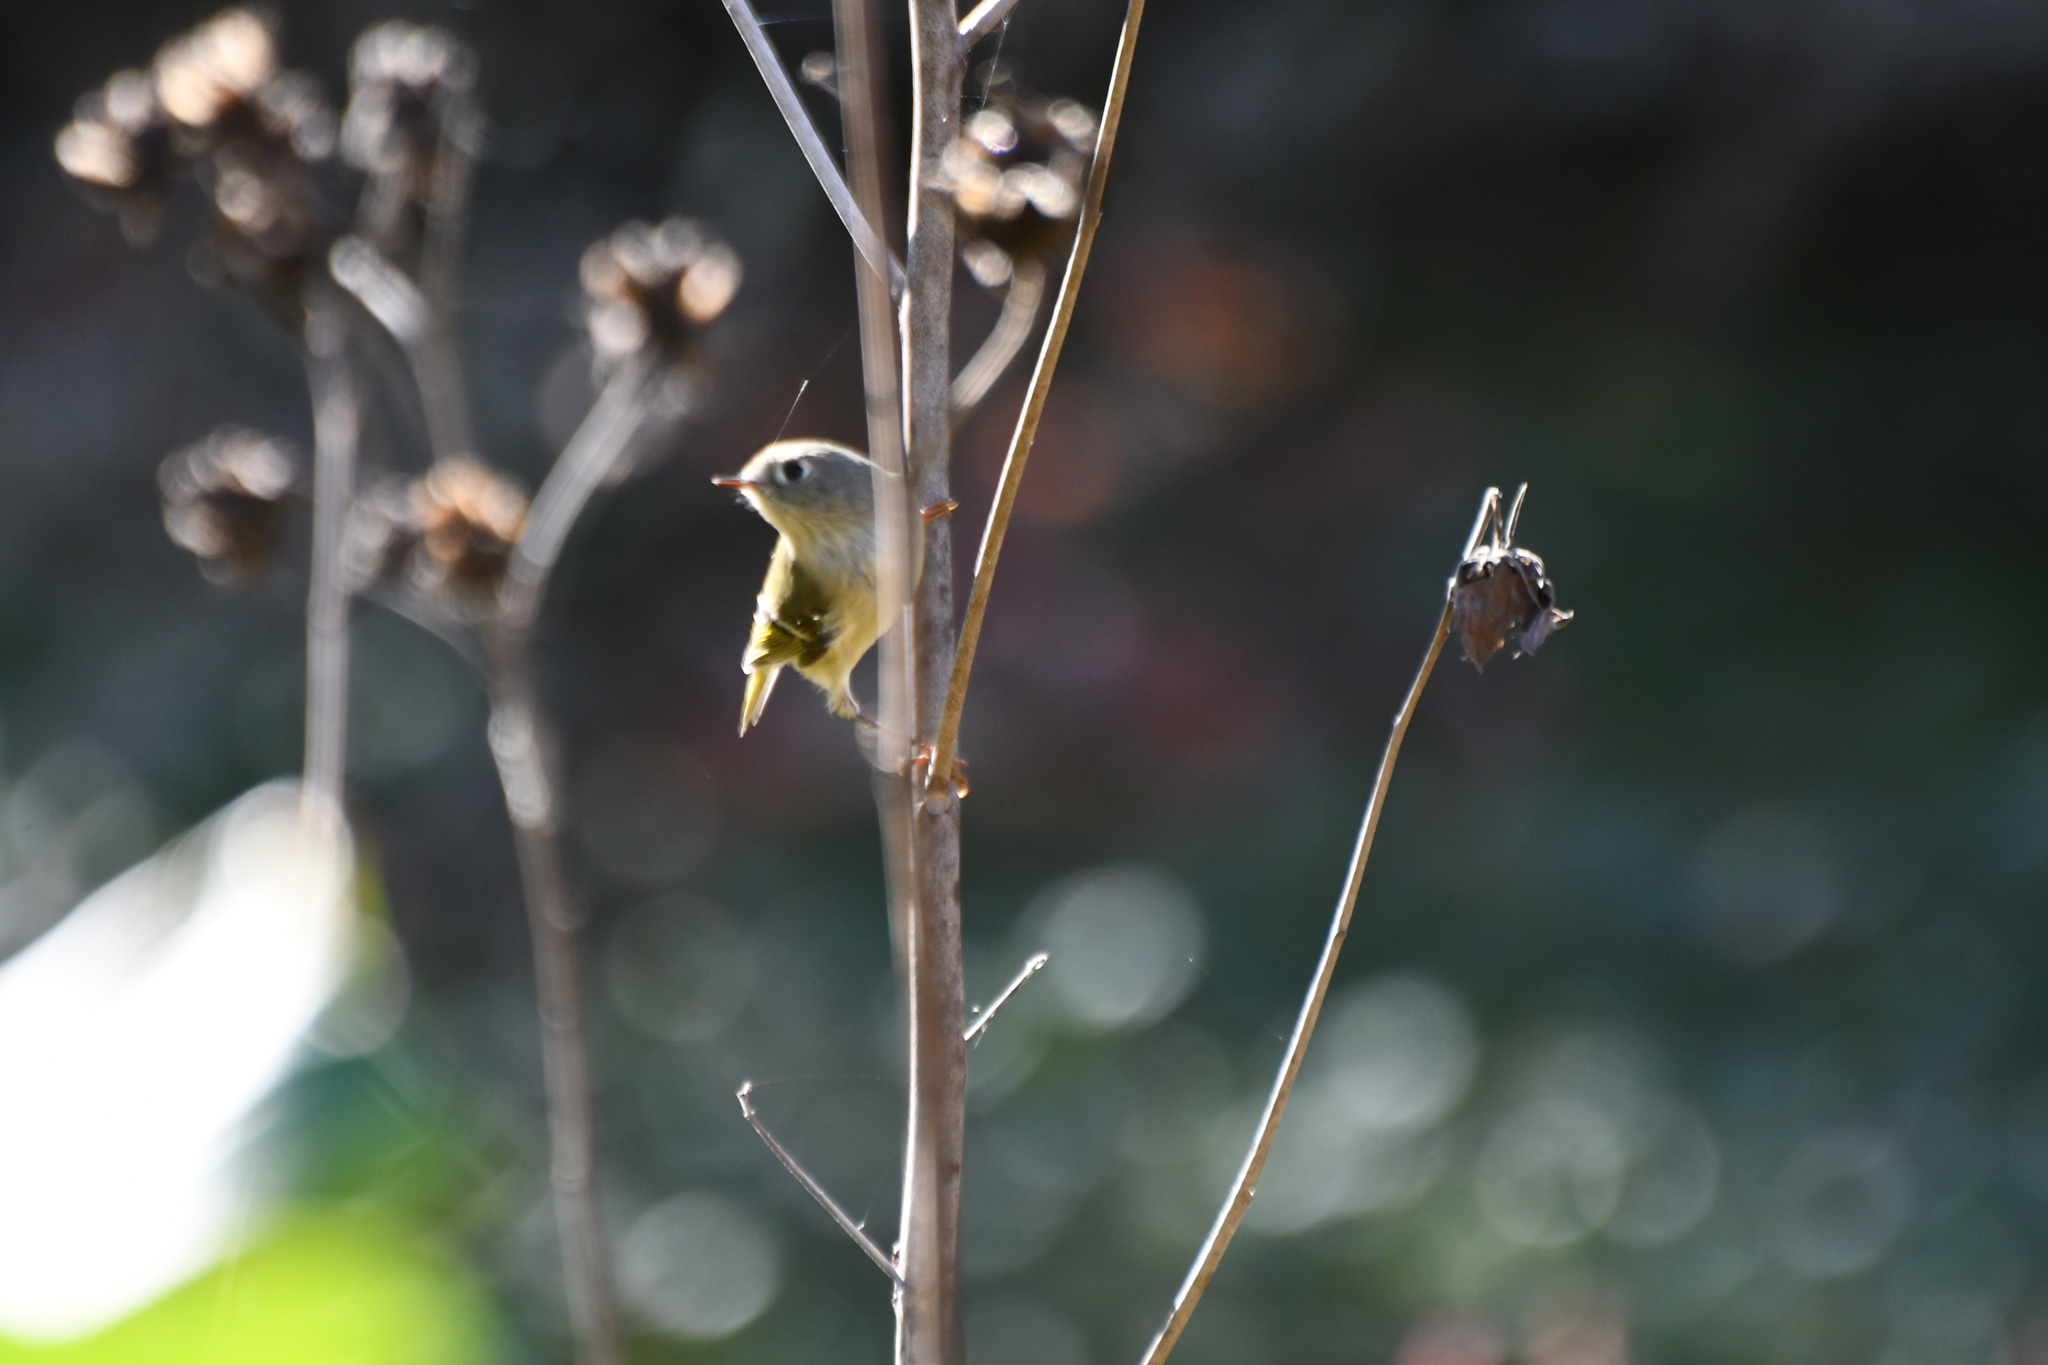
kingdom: Animalia
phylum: Chordata
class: Aves
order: Passeriformes
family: Regulidae
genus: Regulus
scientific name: Regulus calendula
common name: Ruby-crowned kinglet
